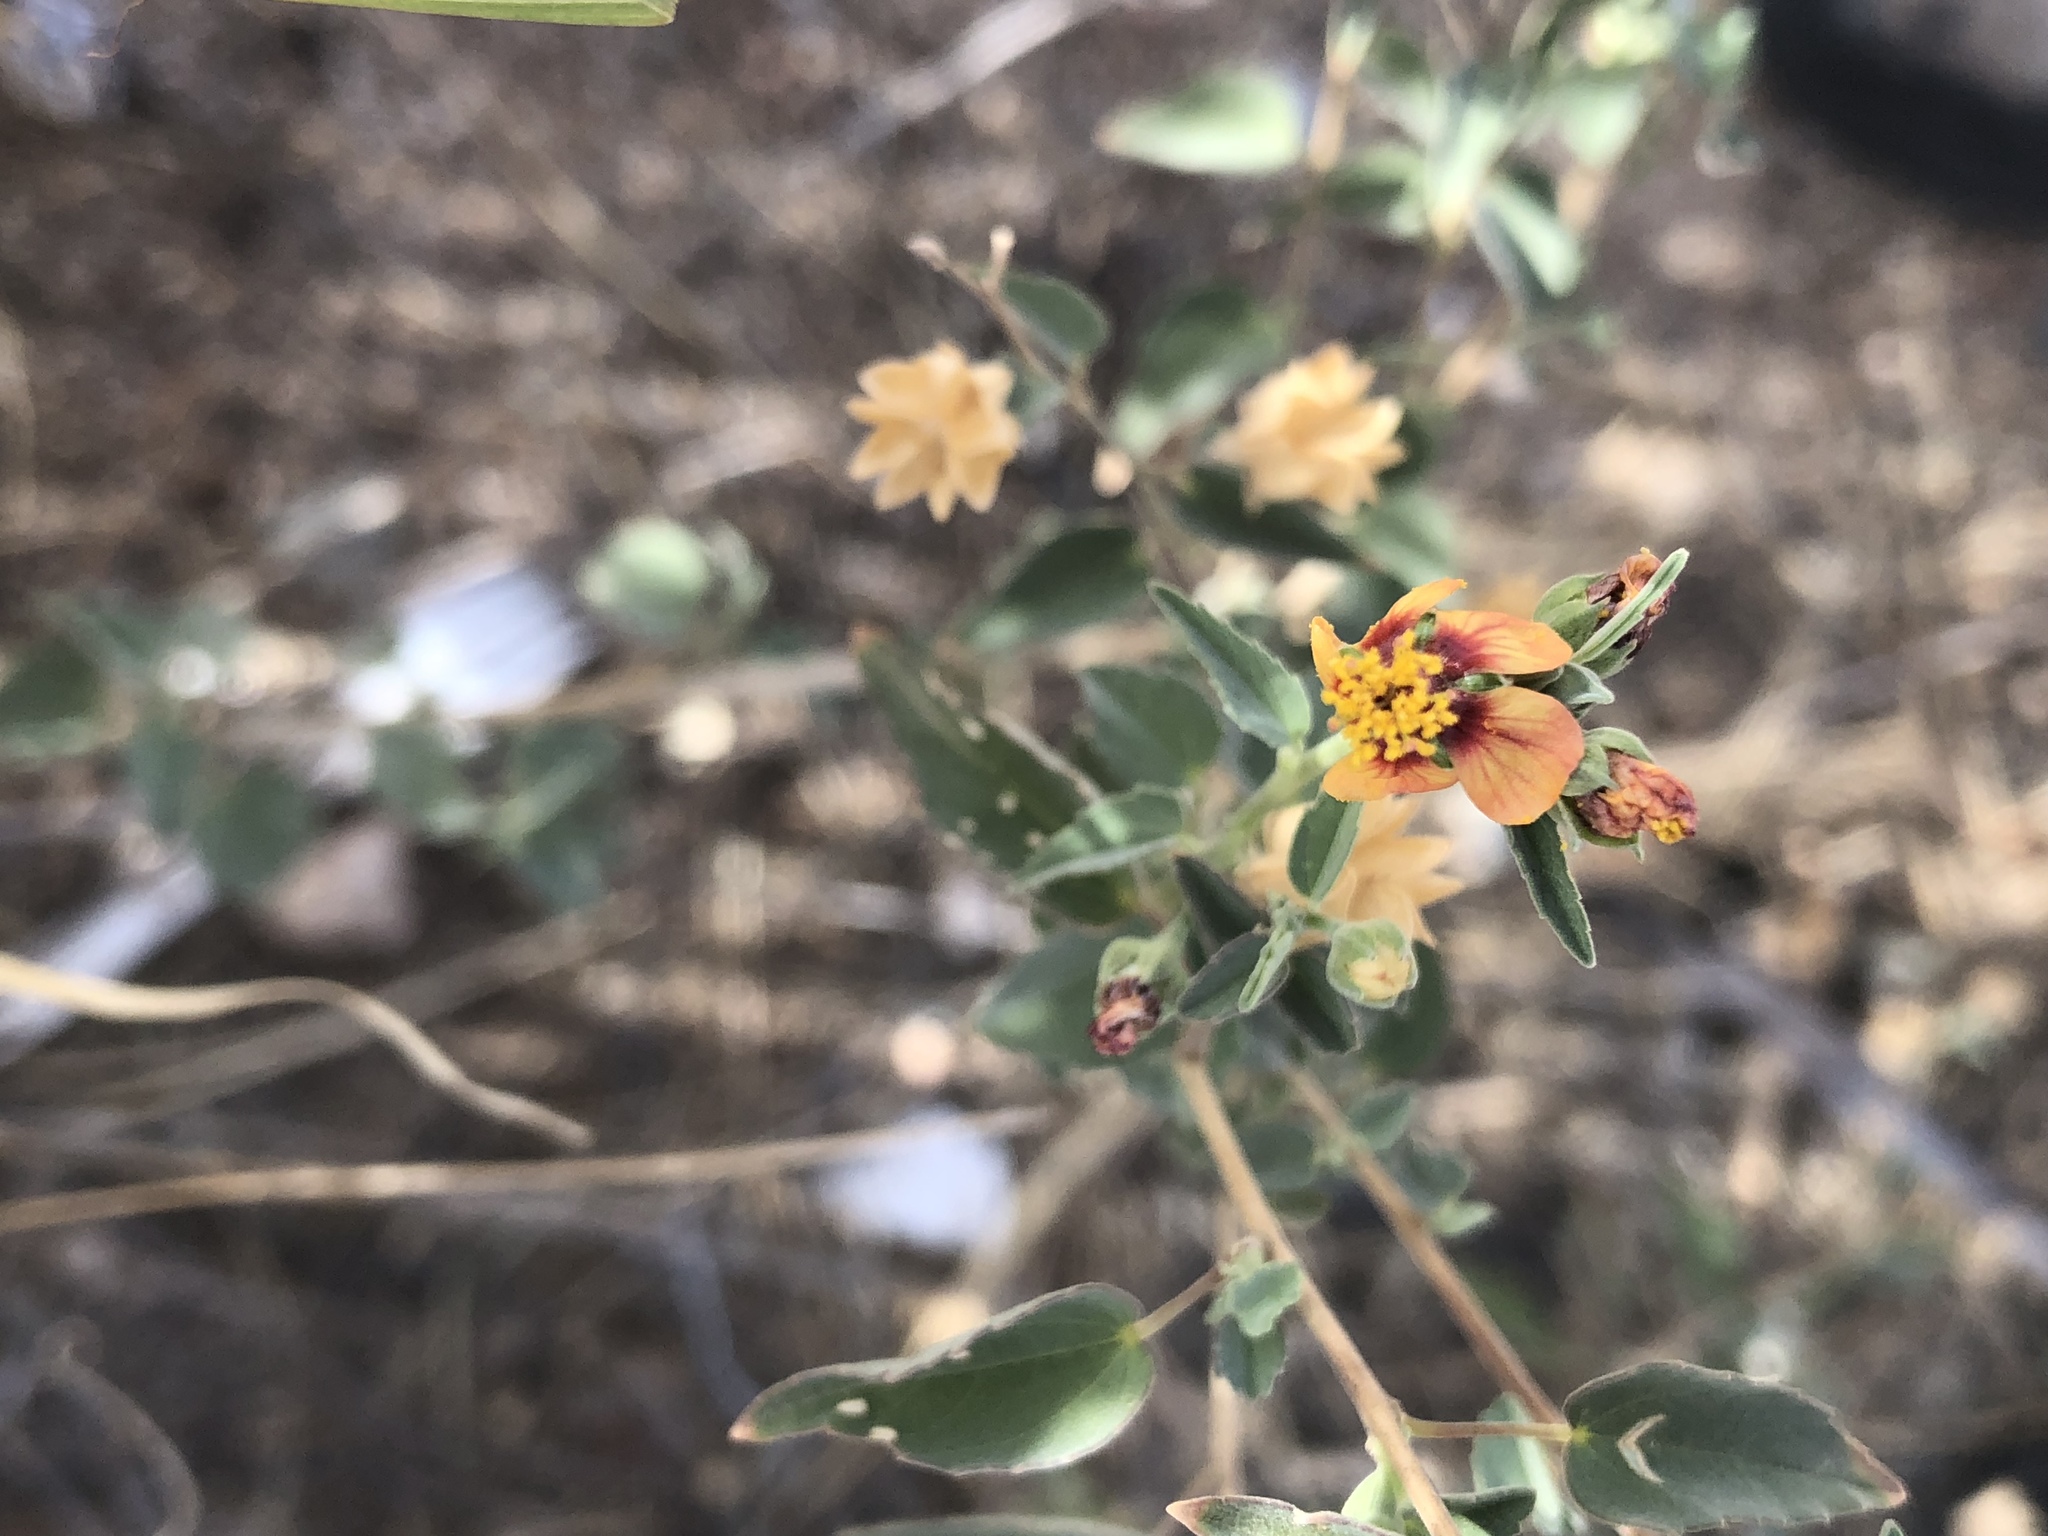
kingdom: Plantae
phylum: Tracheophyta
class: Magnoliopsida
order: Malvales
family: Malvaceae
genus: Abutilon
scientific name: Abutilon incanum
